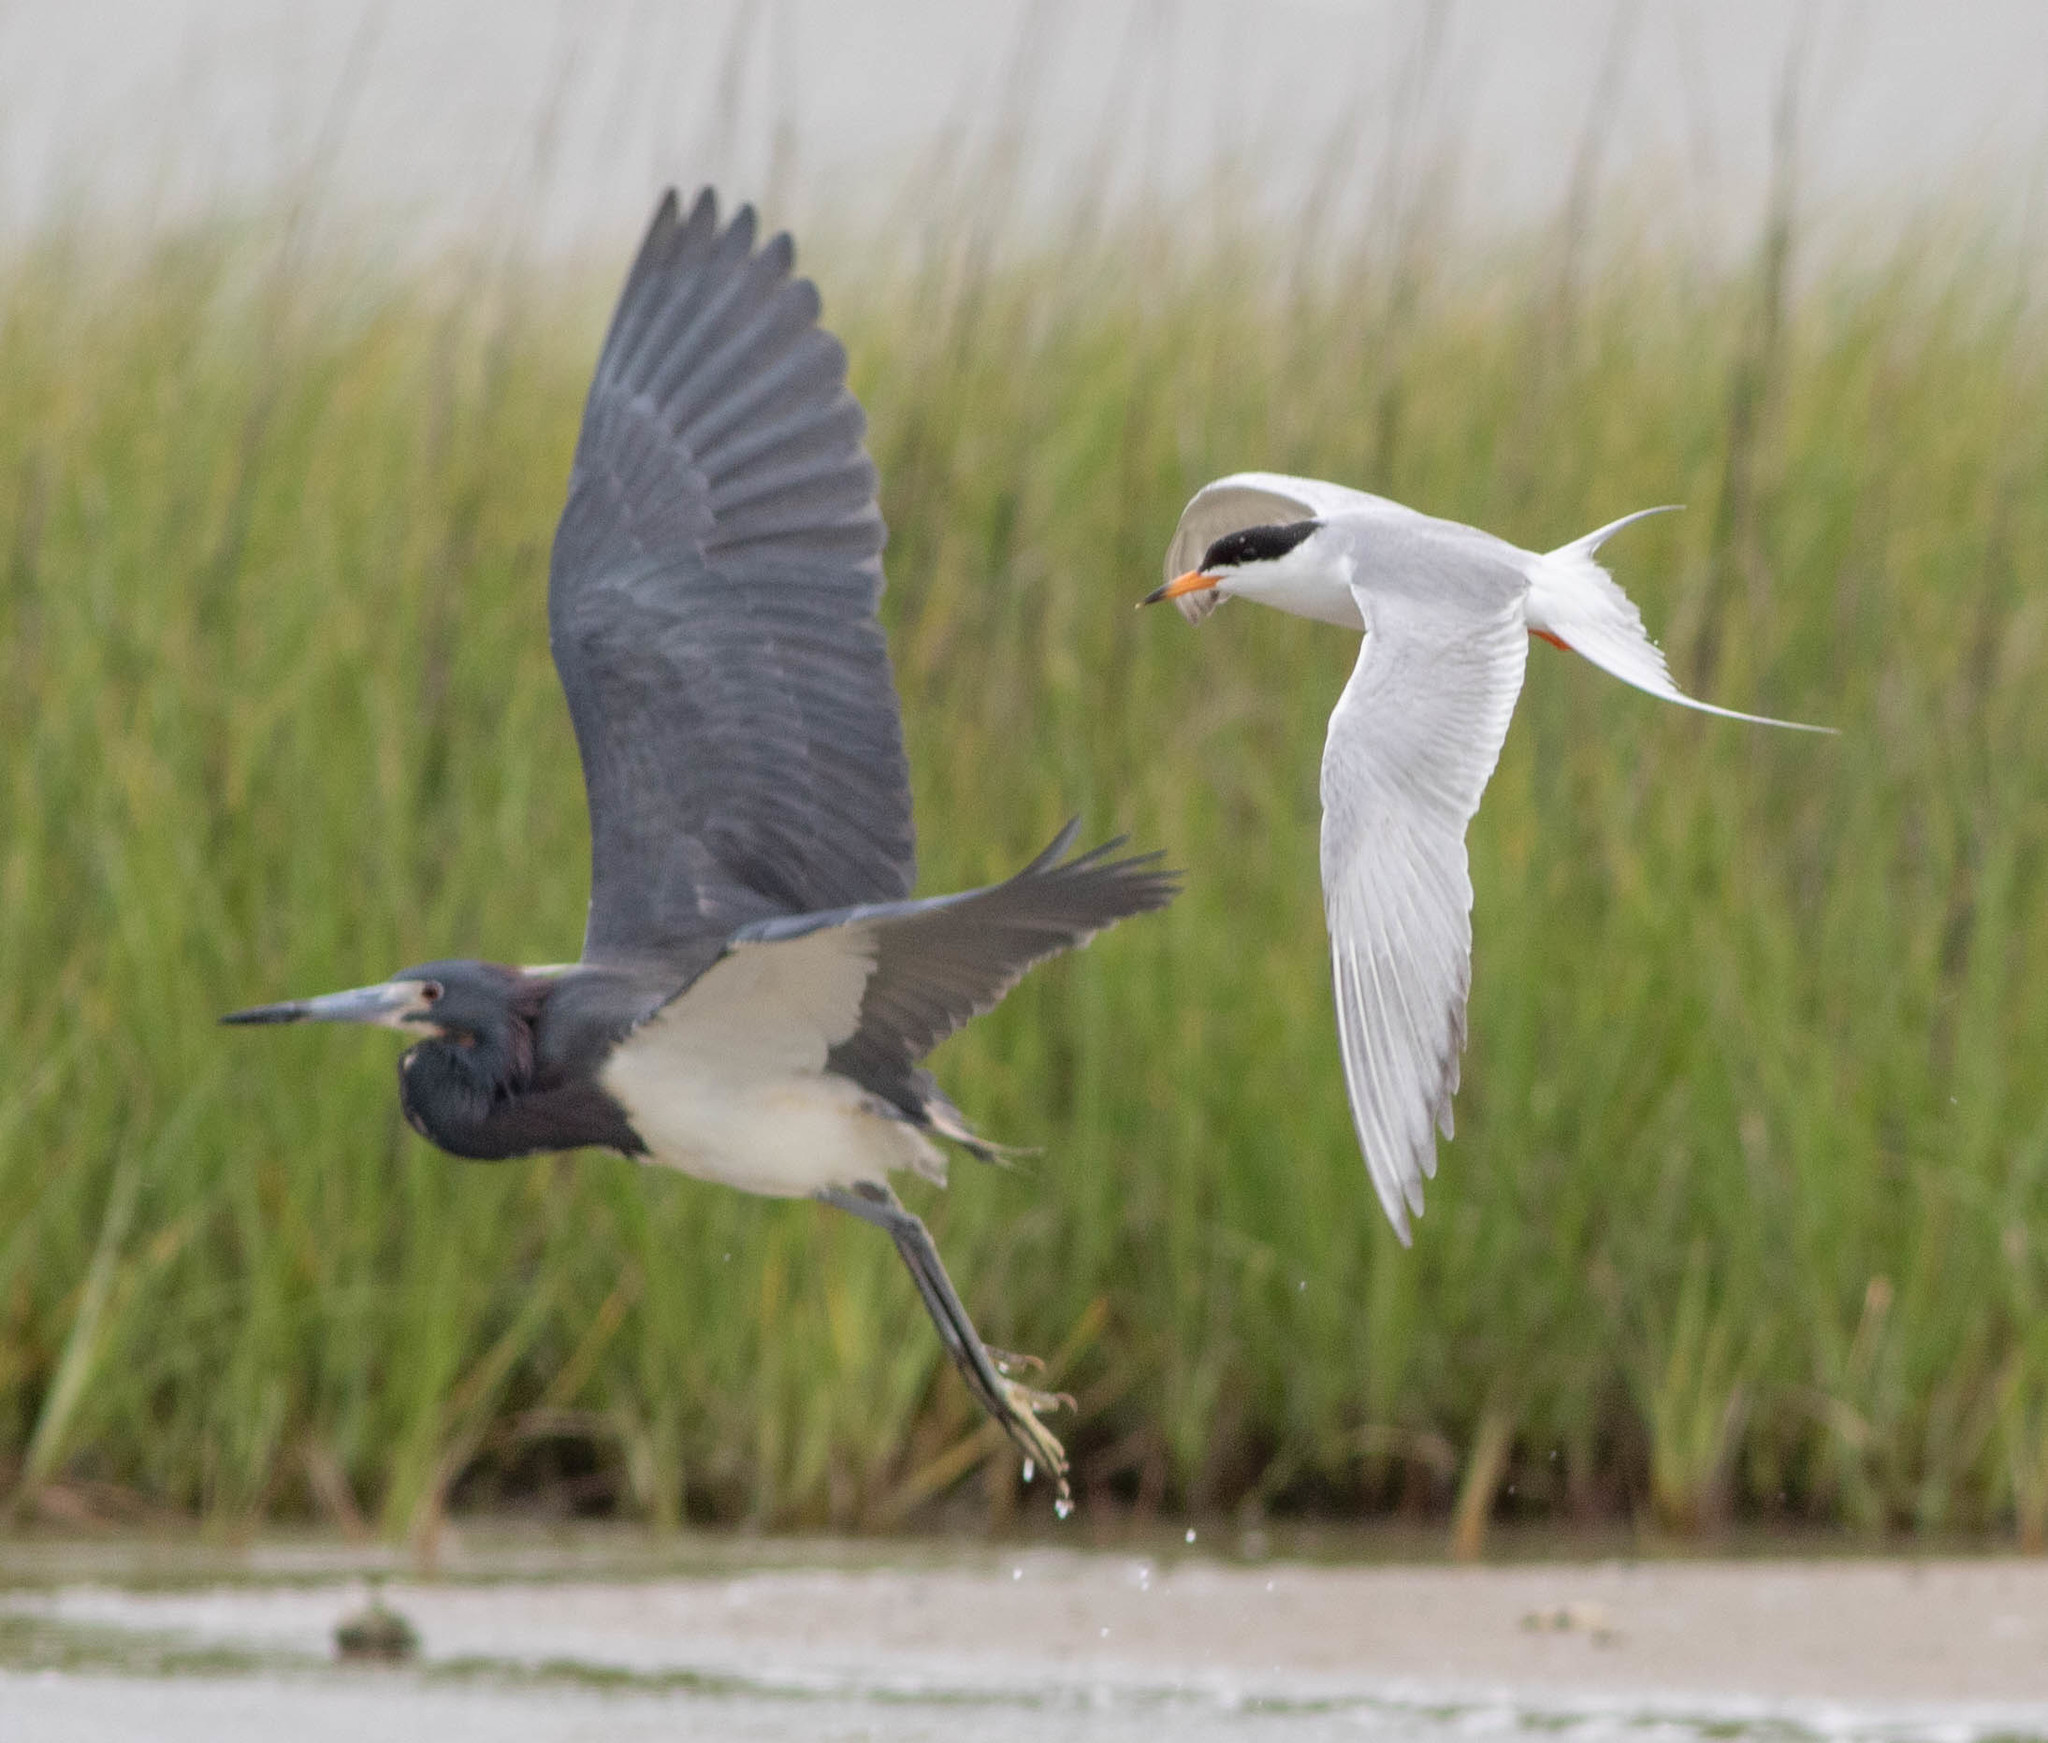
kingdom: Animalia
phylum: Chordata
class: Aves
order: Pelecaniformes
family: Ardeidae
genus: Egretta
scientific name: Egretta tricolor
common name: Tricolored heron
